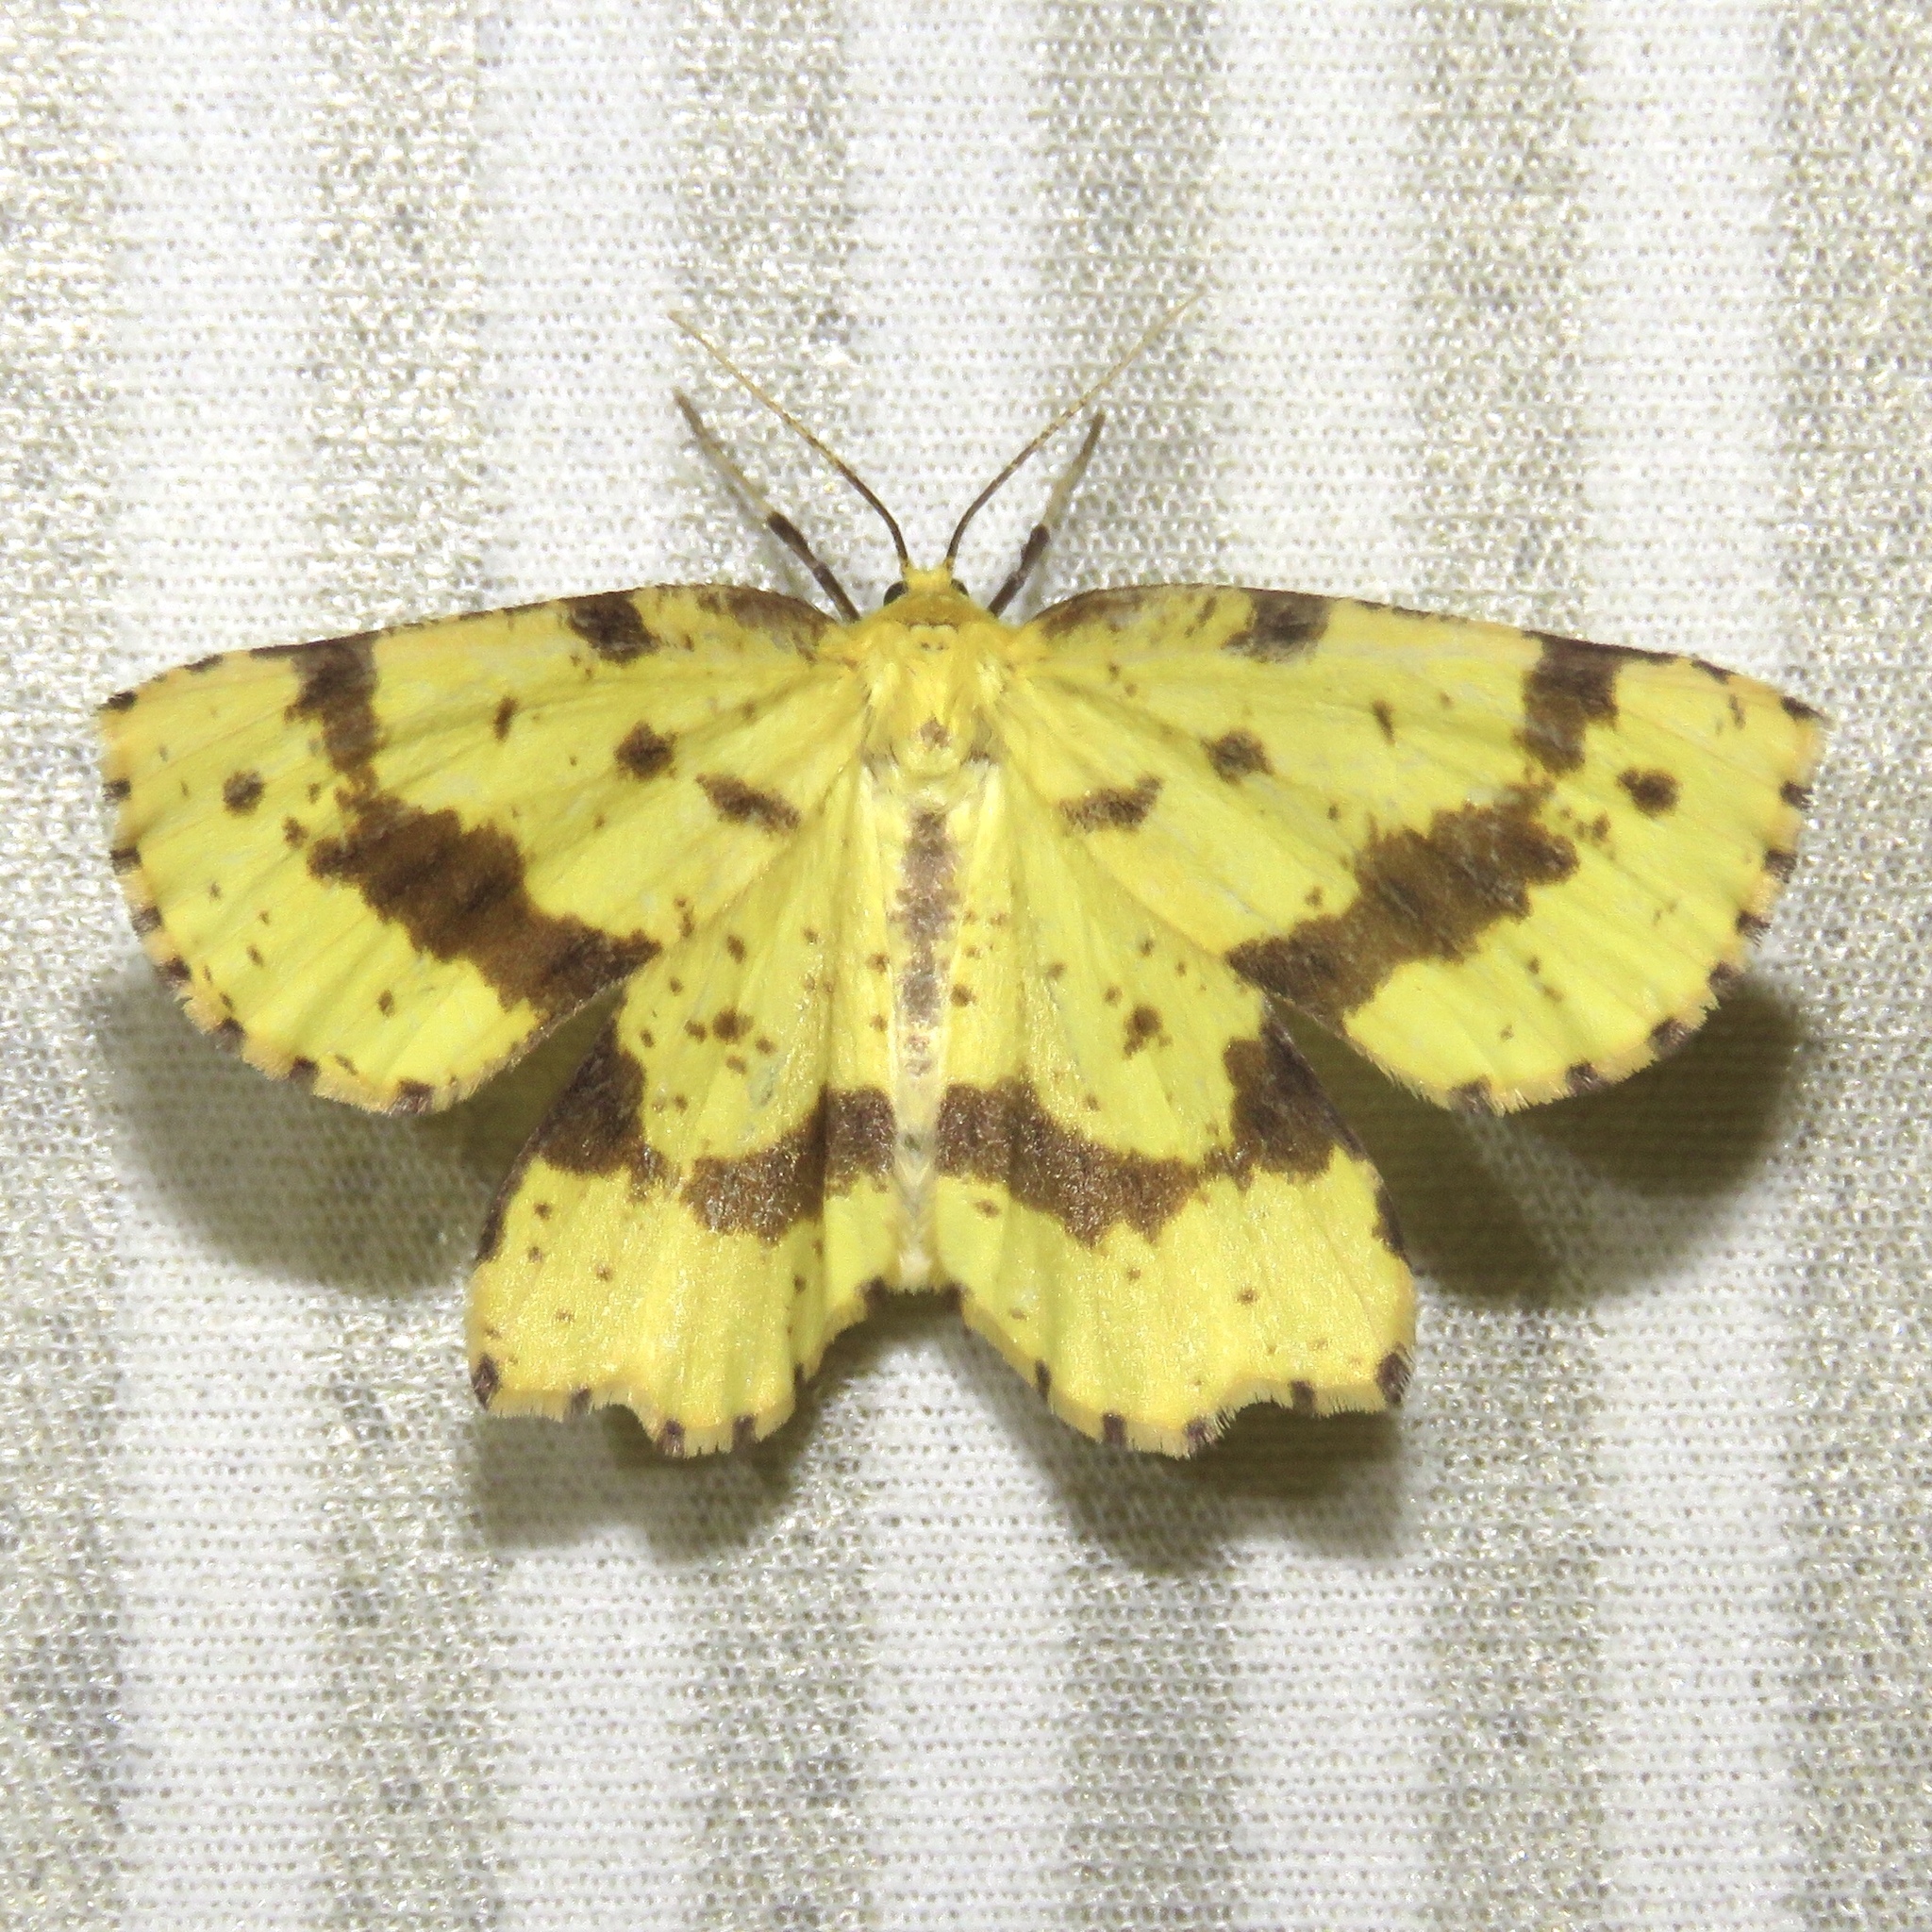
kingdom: Animalia
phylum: Arthropoda
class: Insecta
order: Lepidoptera
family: Geometridae
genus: Xanthotype
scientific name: Xanthotype
